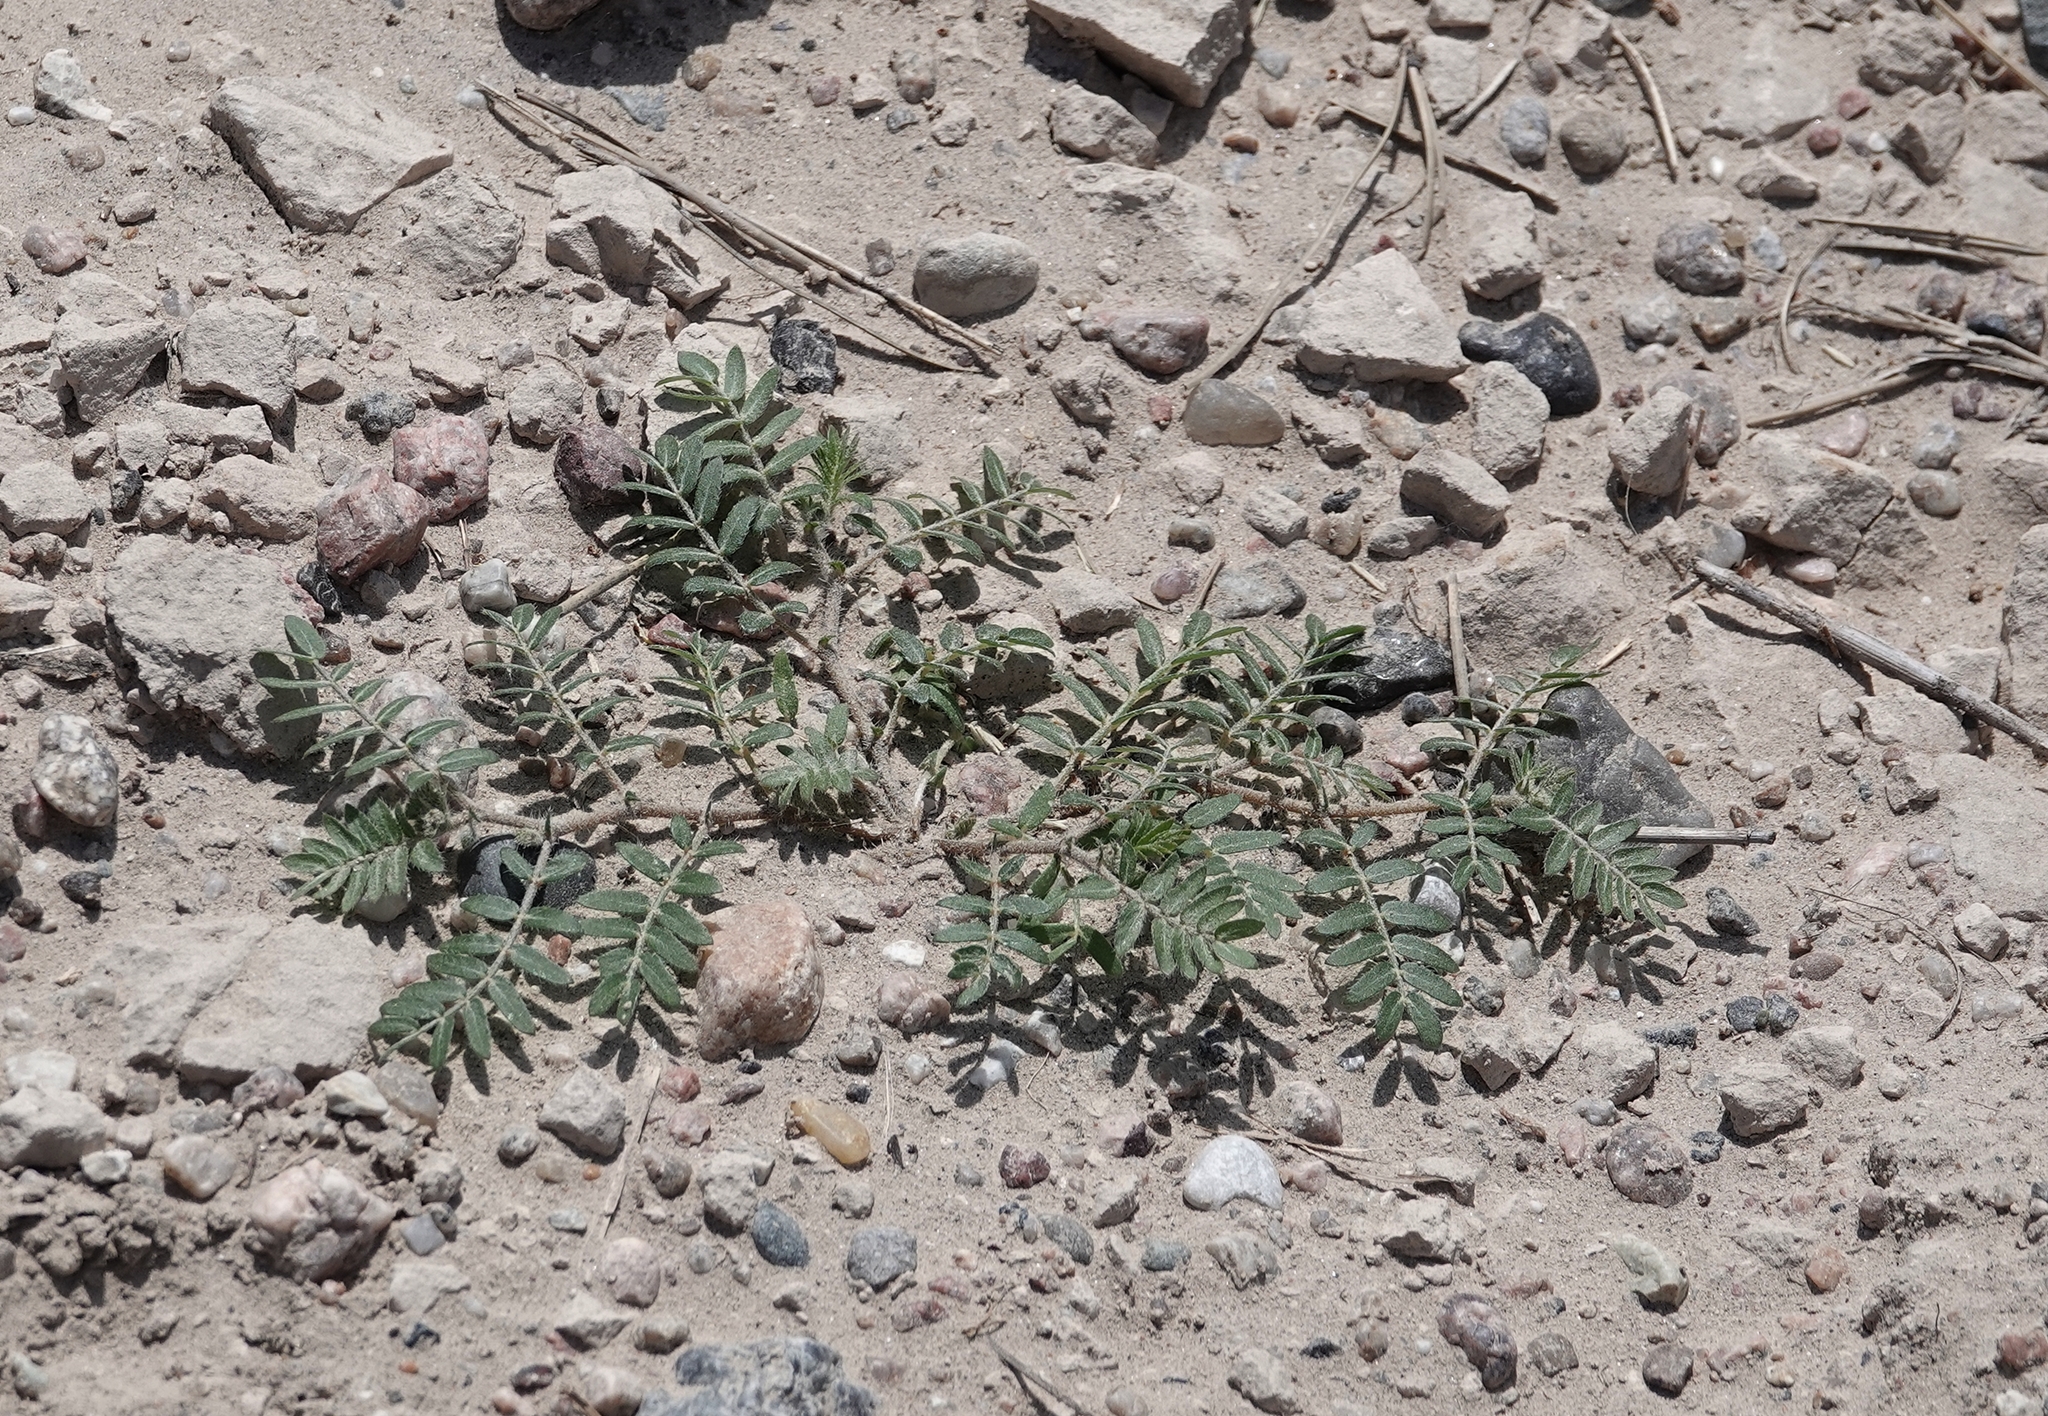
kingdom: Plantae
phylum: Tracheophyta
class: Magnoliopsida
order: Zygophyllales
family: Zygophyllaceae
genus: Tribulus
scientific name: Tribulus terrestris
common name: Puncturevine
